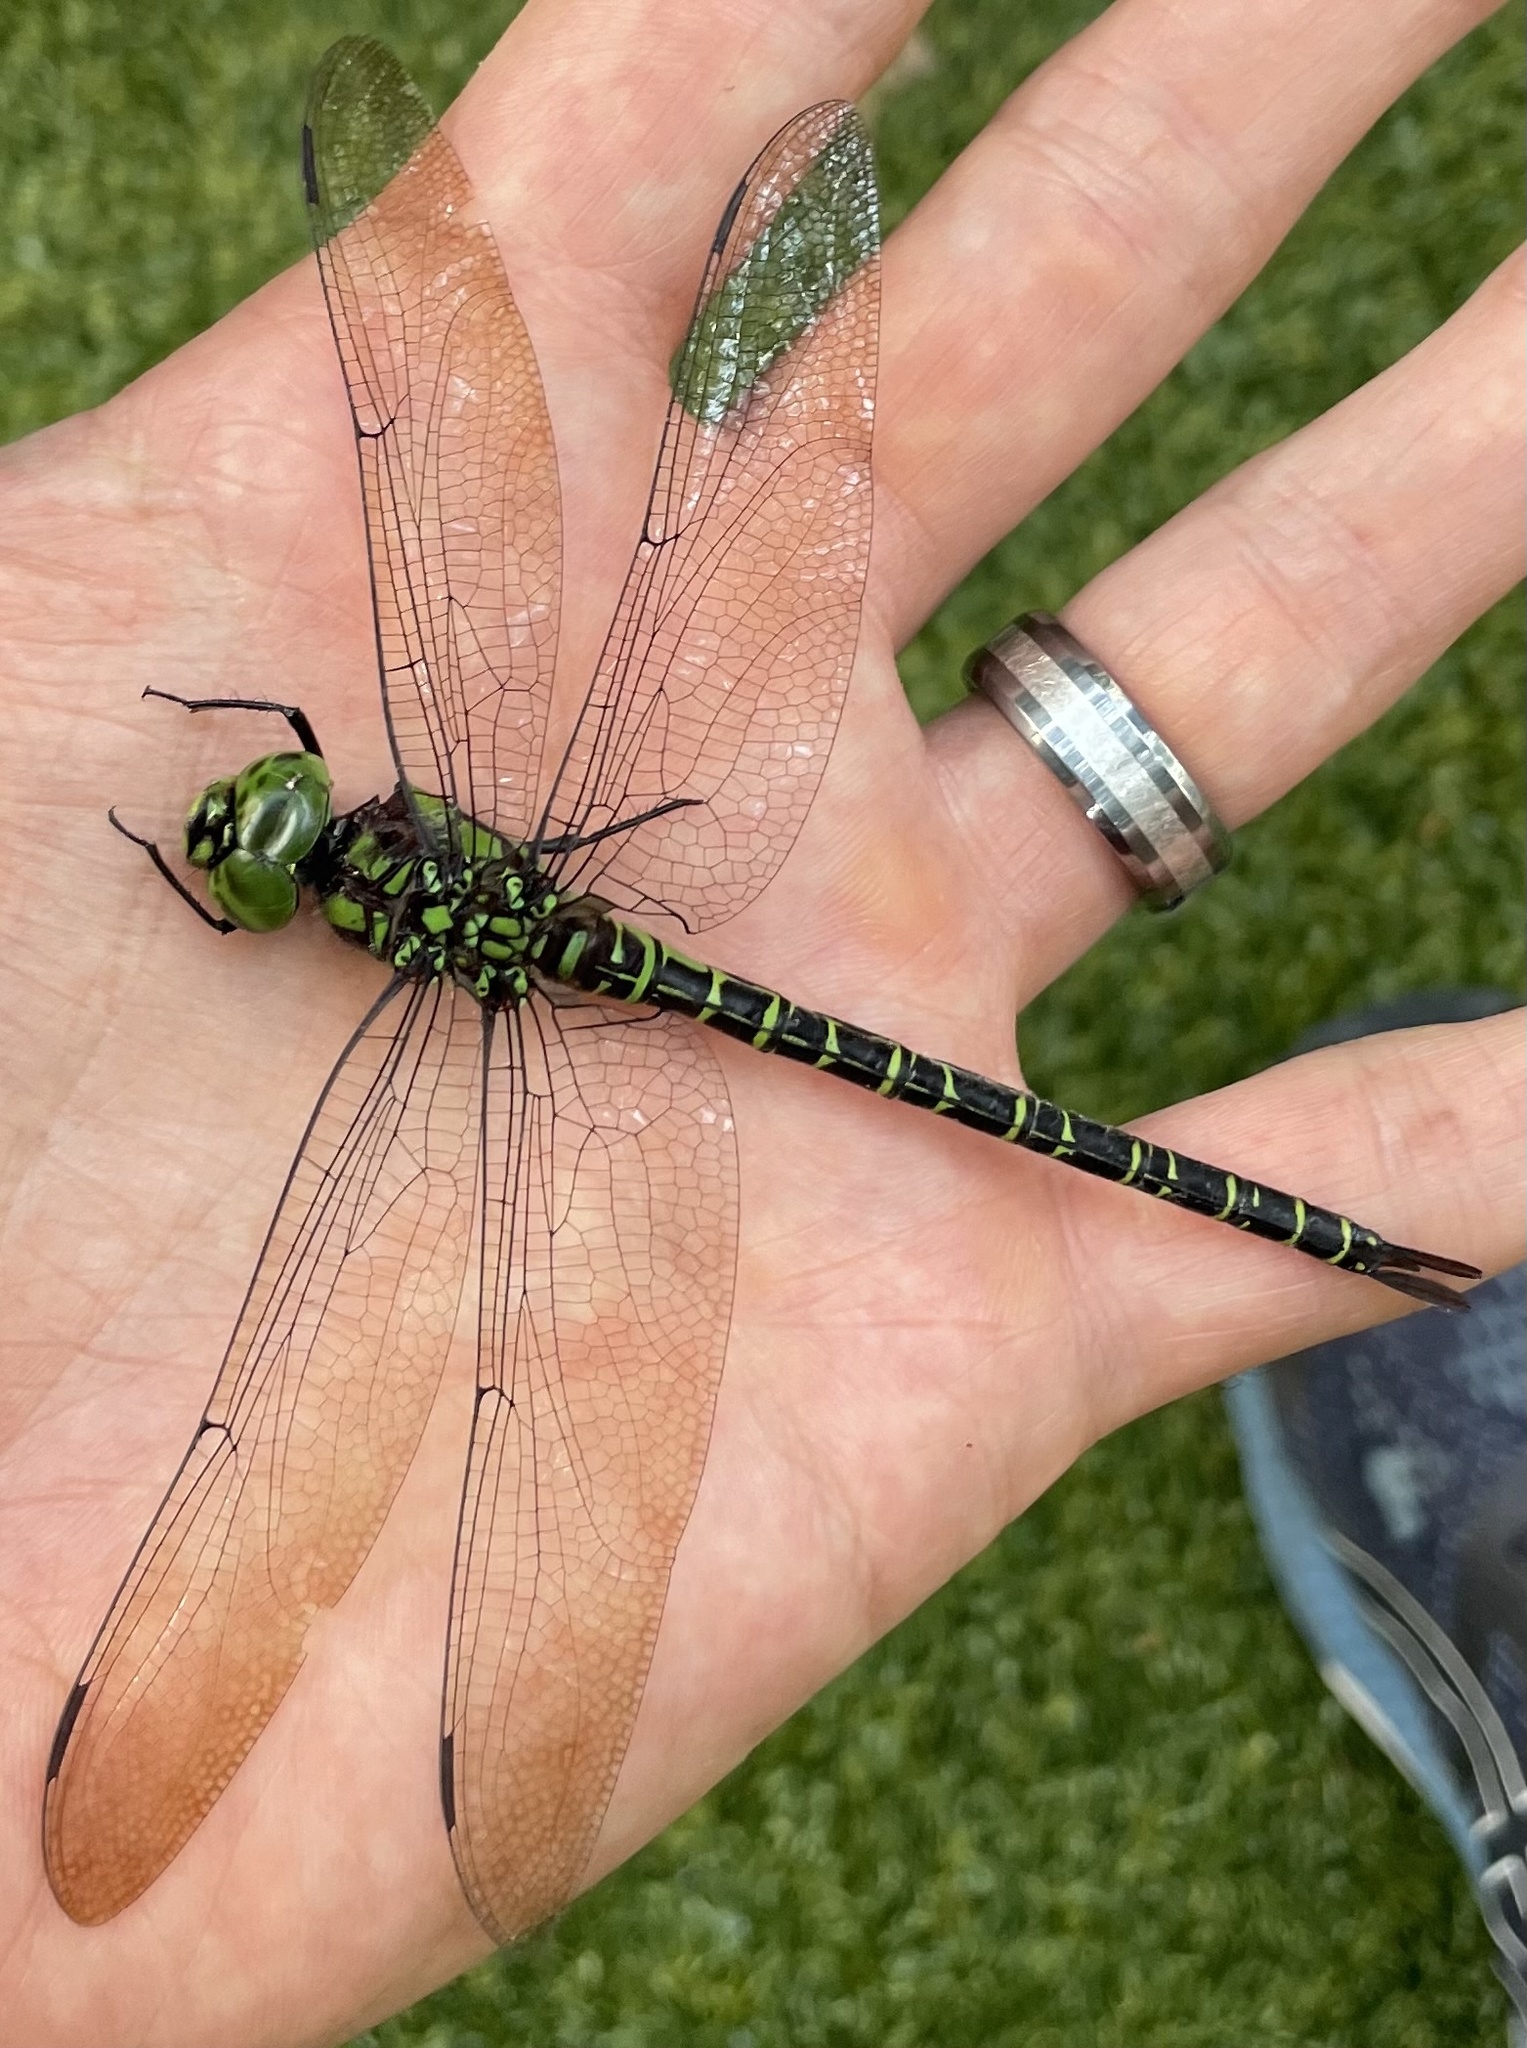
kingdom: Animalia
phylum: Arthropoda
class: Insecta
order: Odonata
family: Aeshnidae
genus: Coryphaeschna
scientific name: Coryphaeschna ingens
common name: Regal darner
